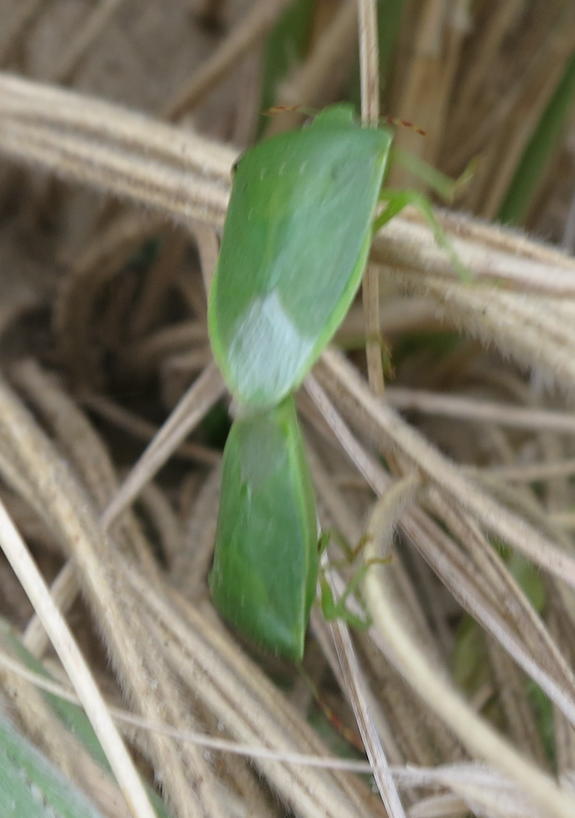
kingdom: Animalia
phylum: Arthropoda
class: Insecta
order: Hemiptera
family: Pentatomidae
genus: Nezara
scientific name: Nezara viridula
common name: Southern green stink bug
